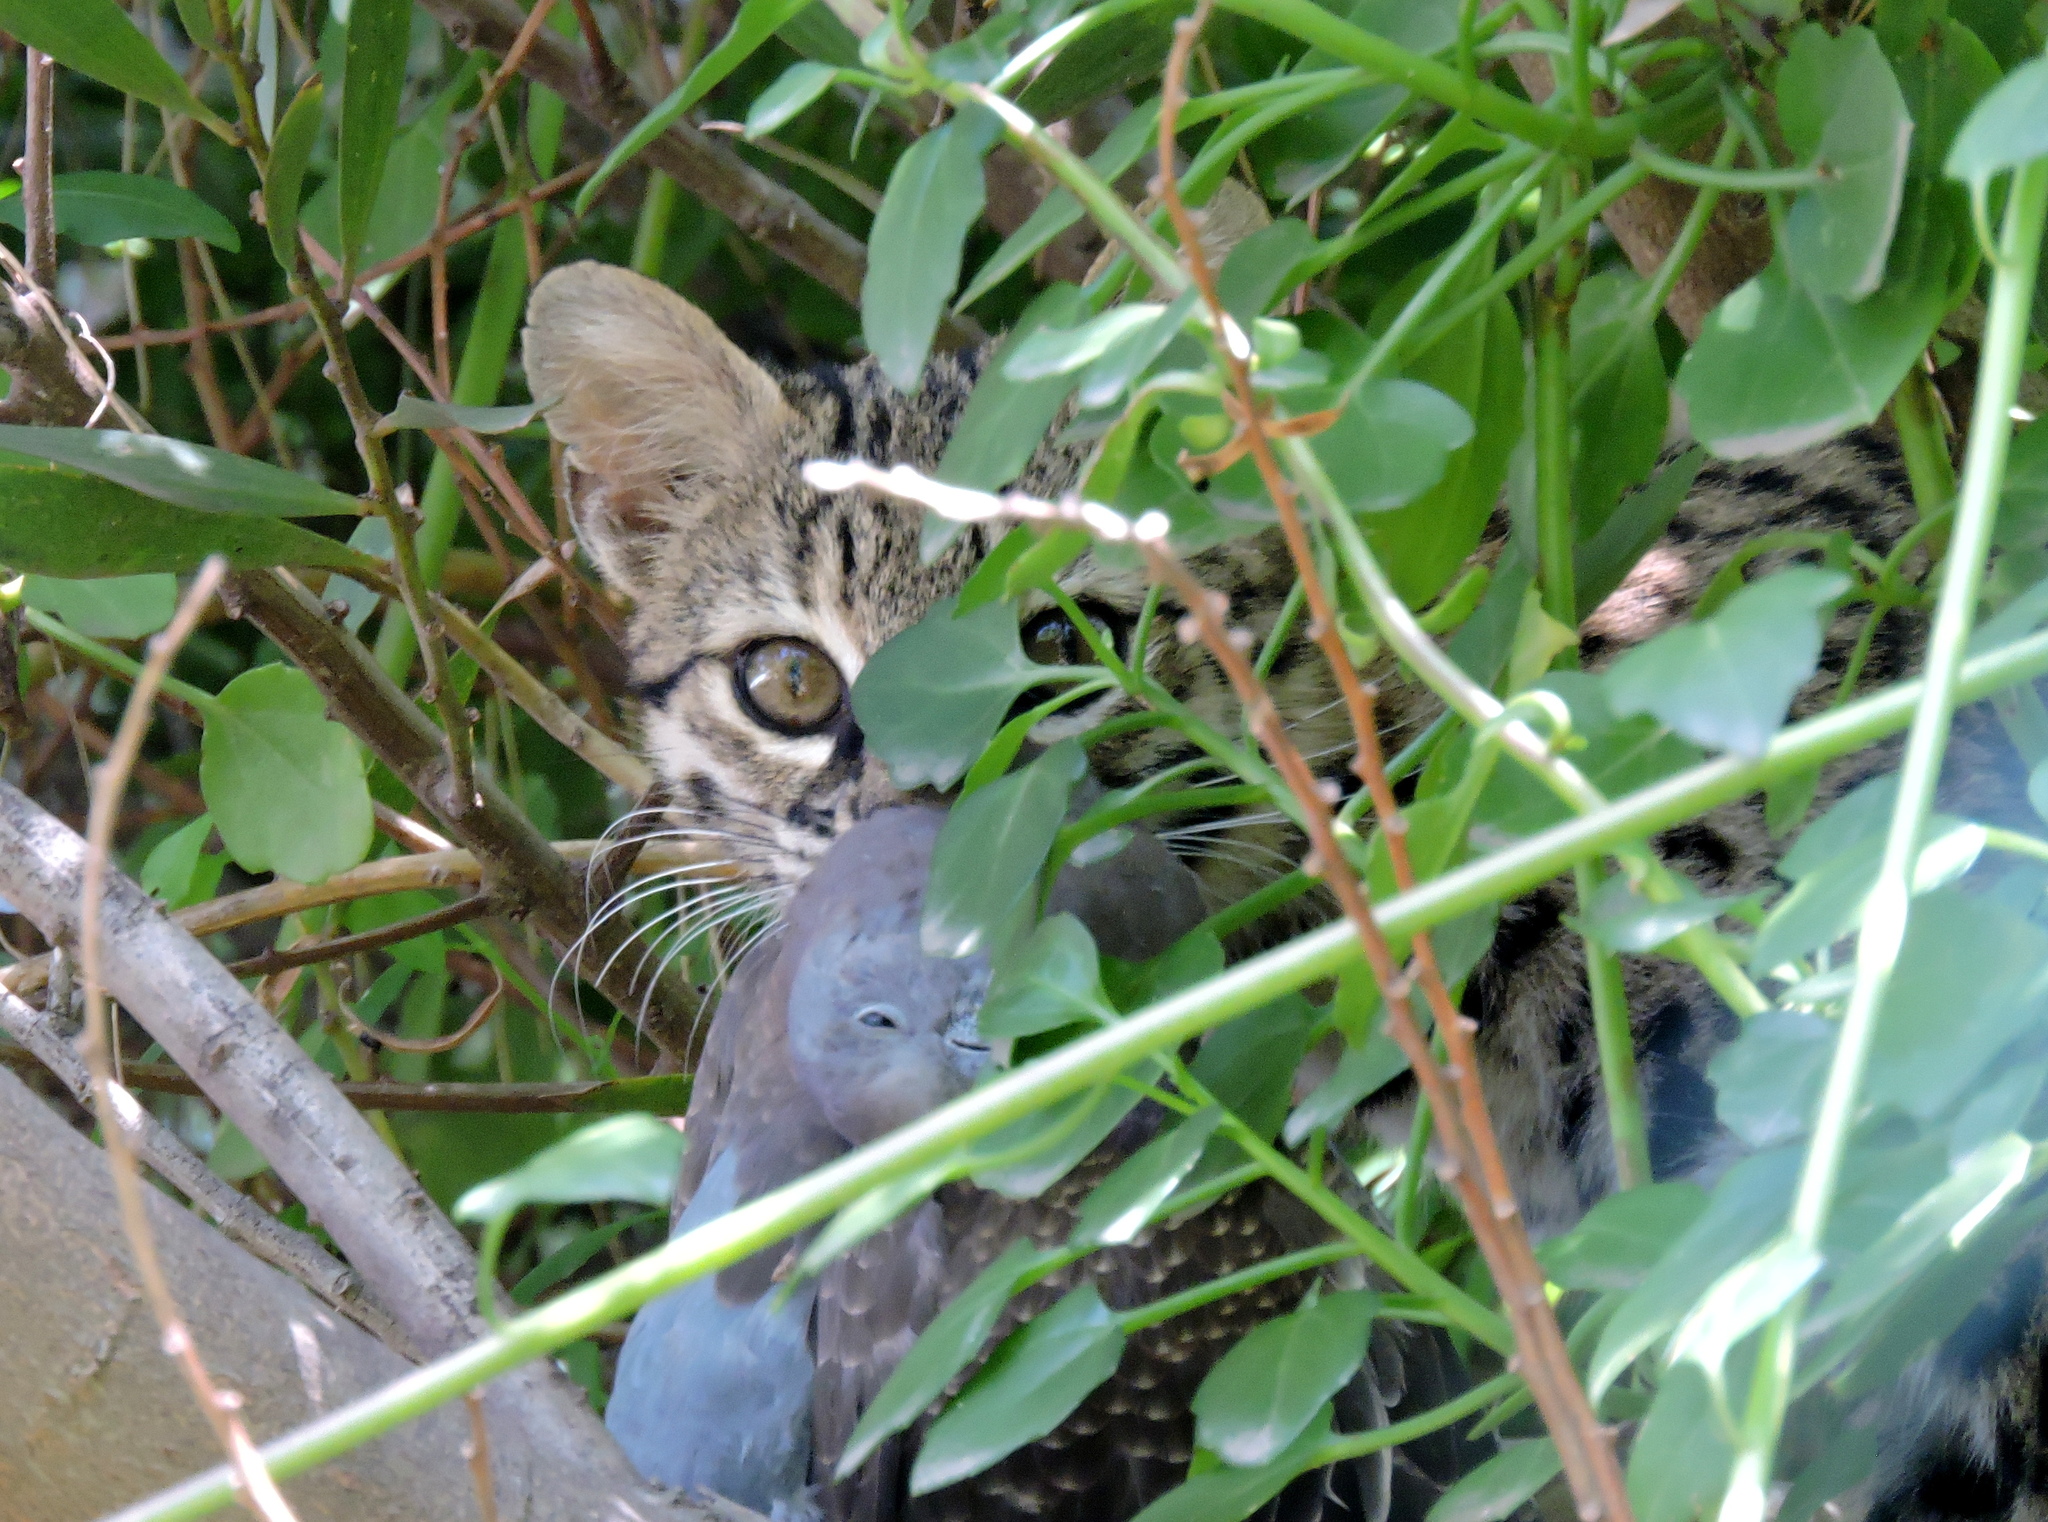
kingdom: Animalia
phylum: Chordata
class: Mammalia
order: Carnivora
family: Felidae
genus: Leopardus
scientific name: Leopardus geoffroyi
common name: Geoffroy's cat
